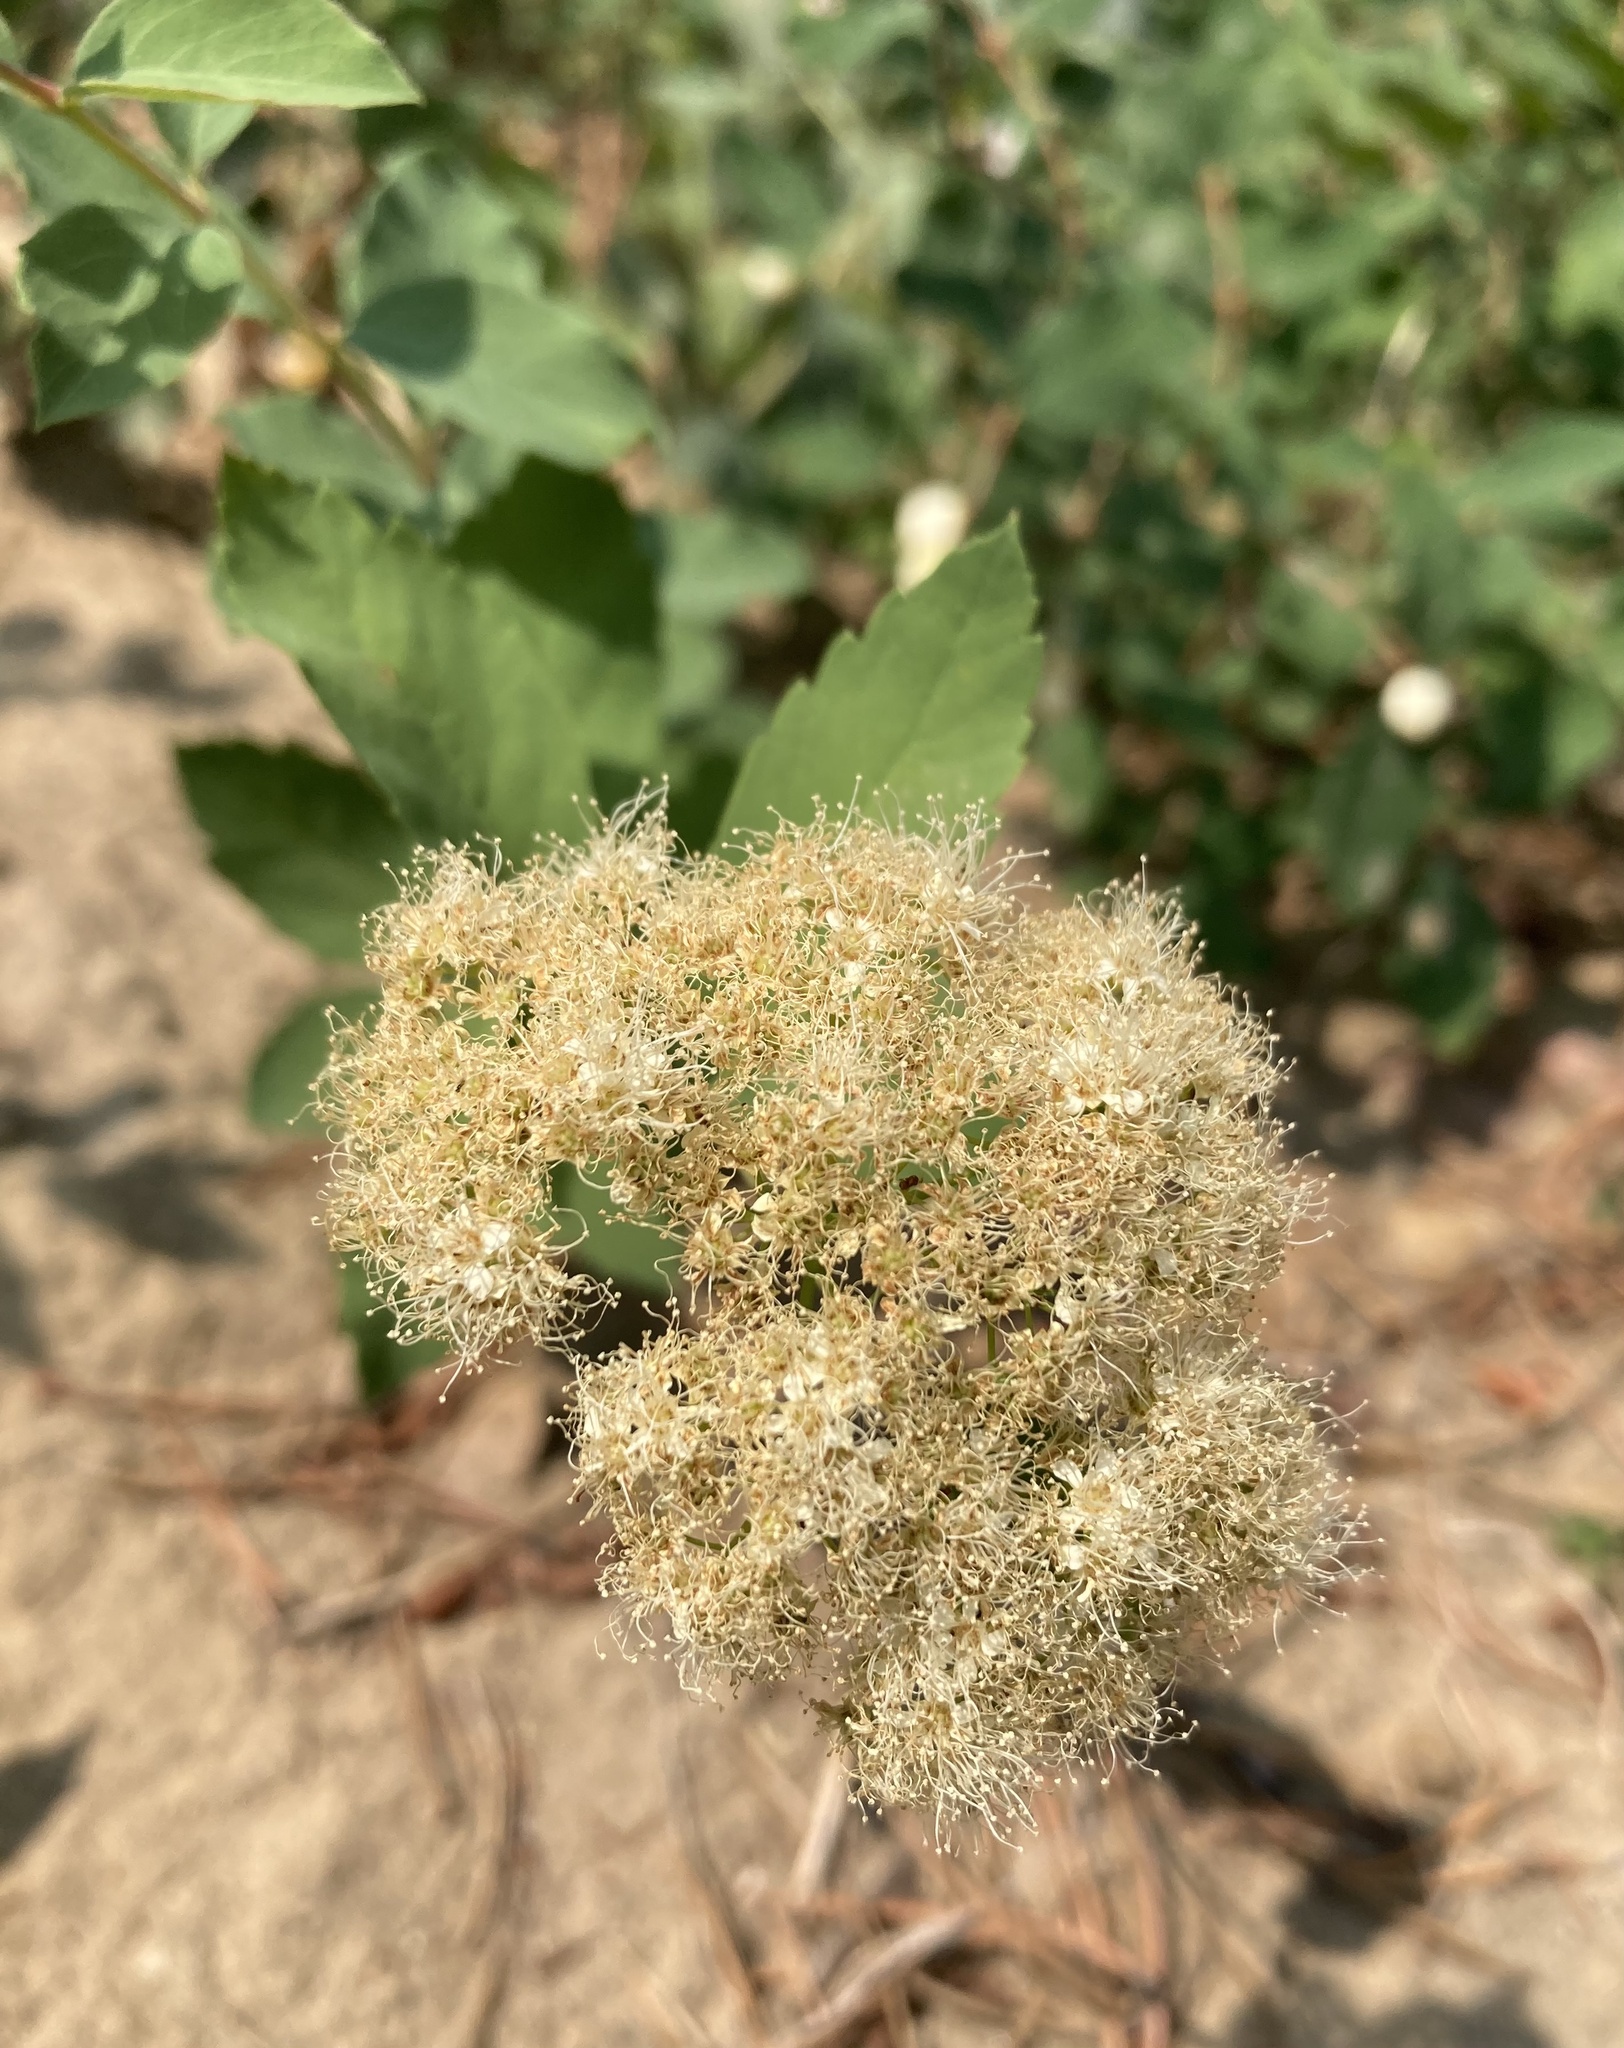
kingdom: Plantae
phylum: Tracheophyta
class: Magnoliopsida
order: Rosales
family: Rosaceae
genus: Spiraea
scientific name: Spiraea lucida
